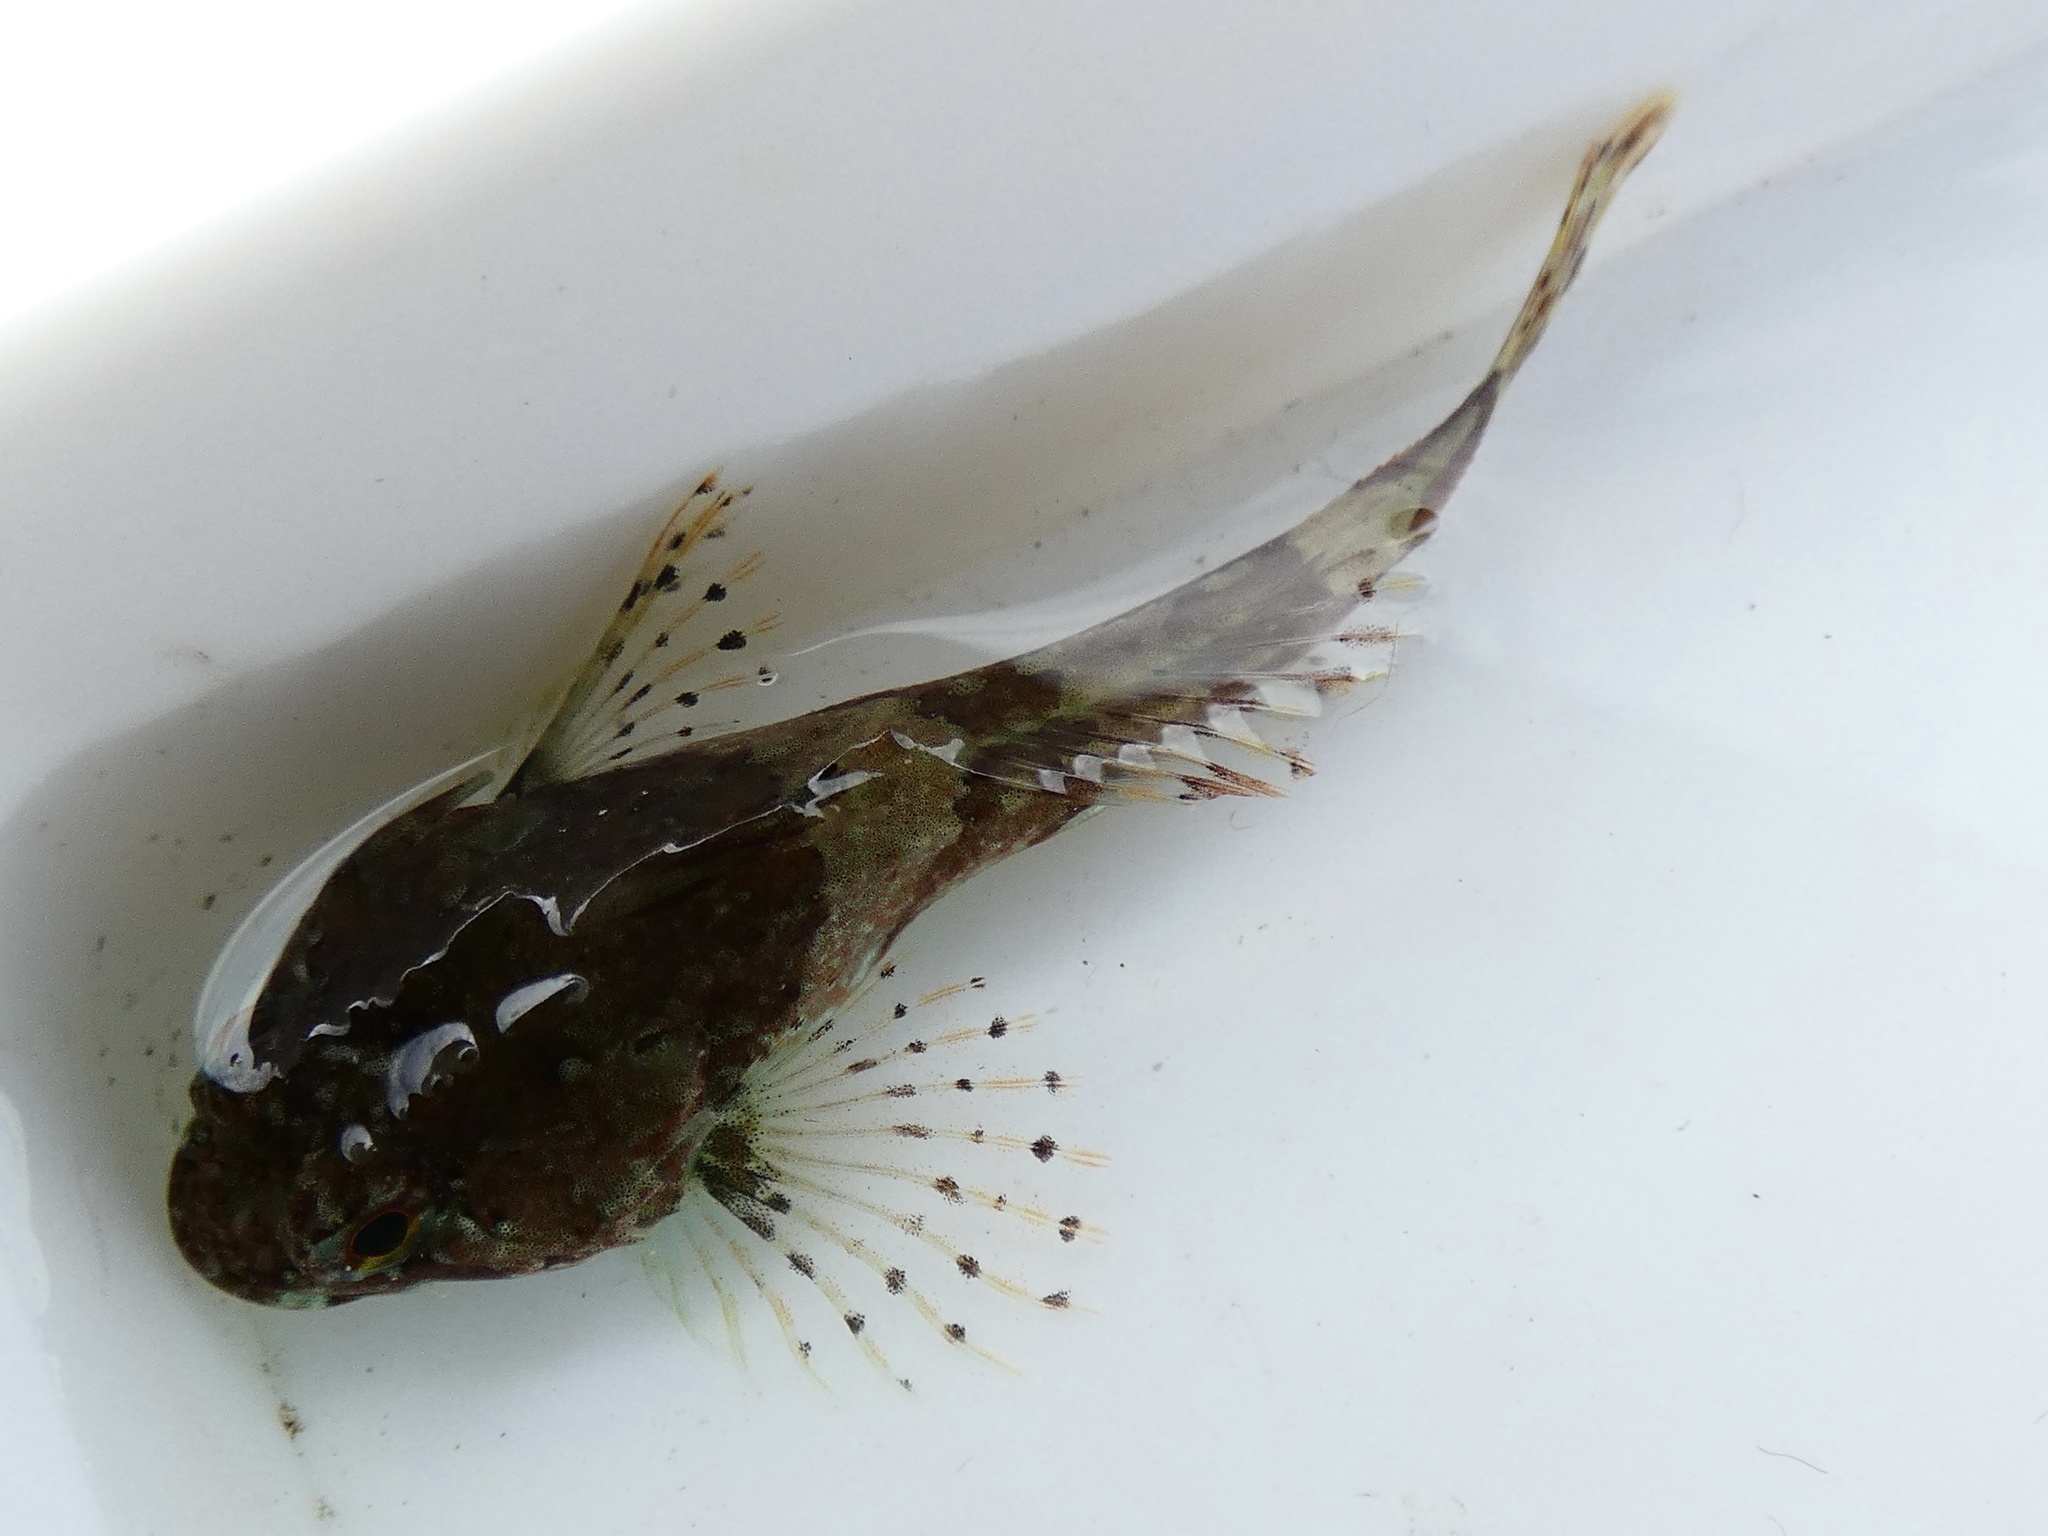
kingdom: Animalia
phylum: Chordata
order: Scorpaeniformes
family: Cottidae
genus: Taurulus
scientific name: Taurulus bubalis
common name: Sea scorpion
